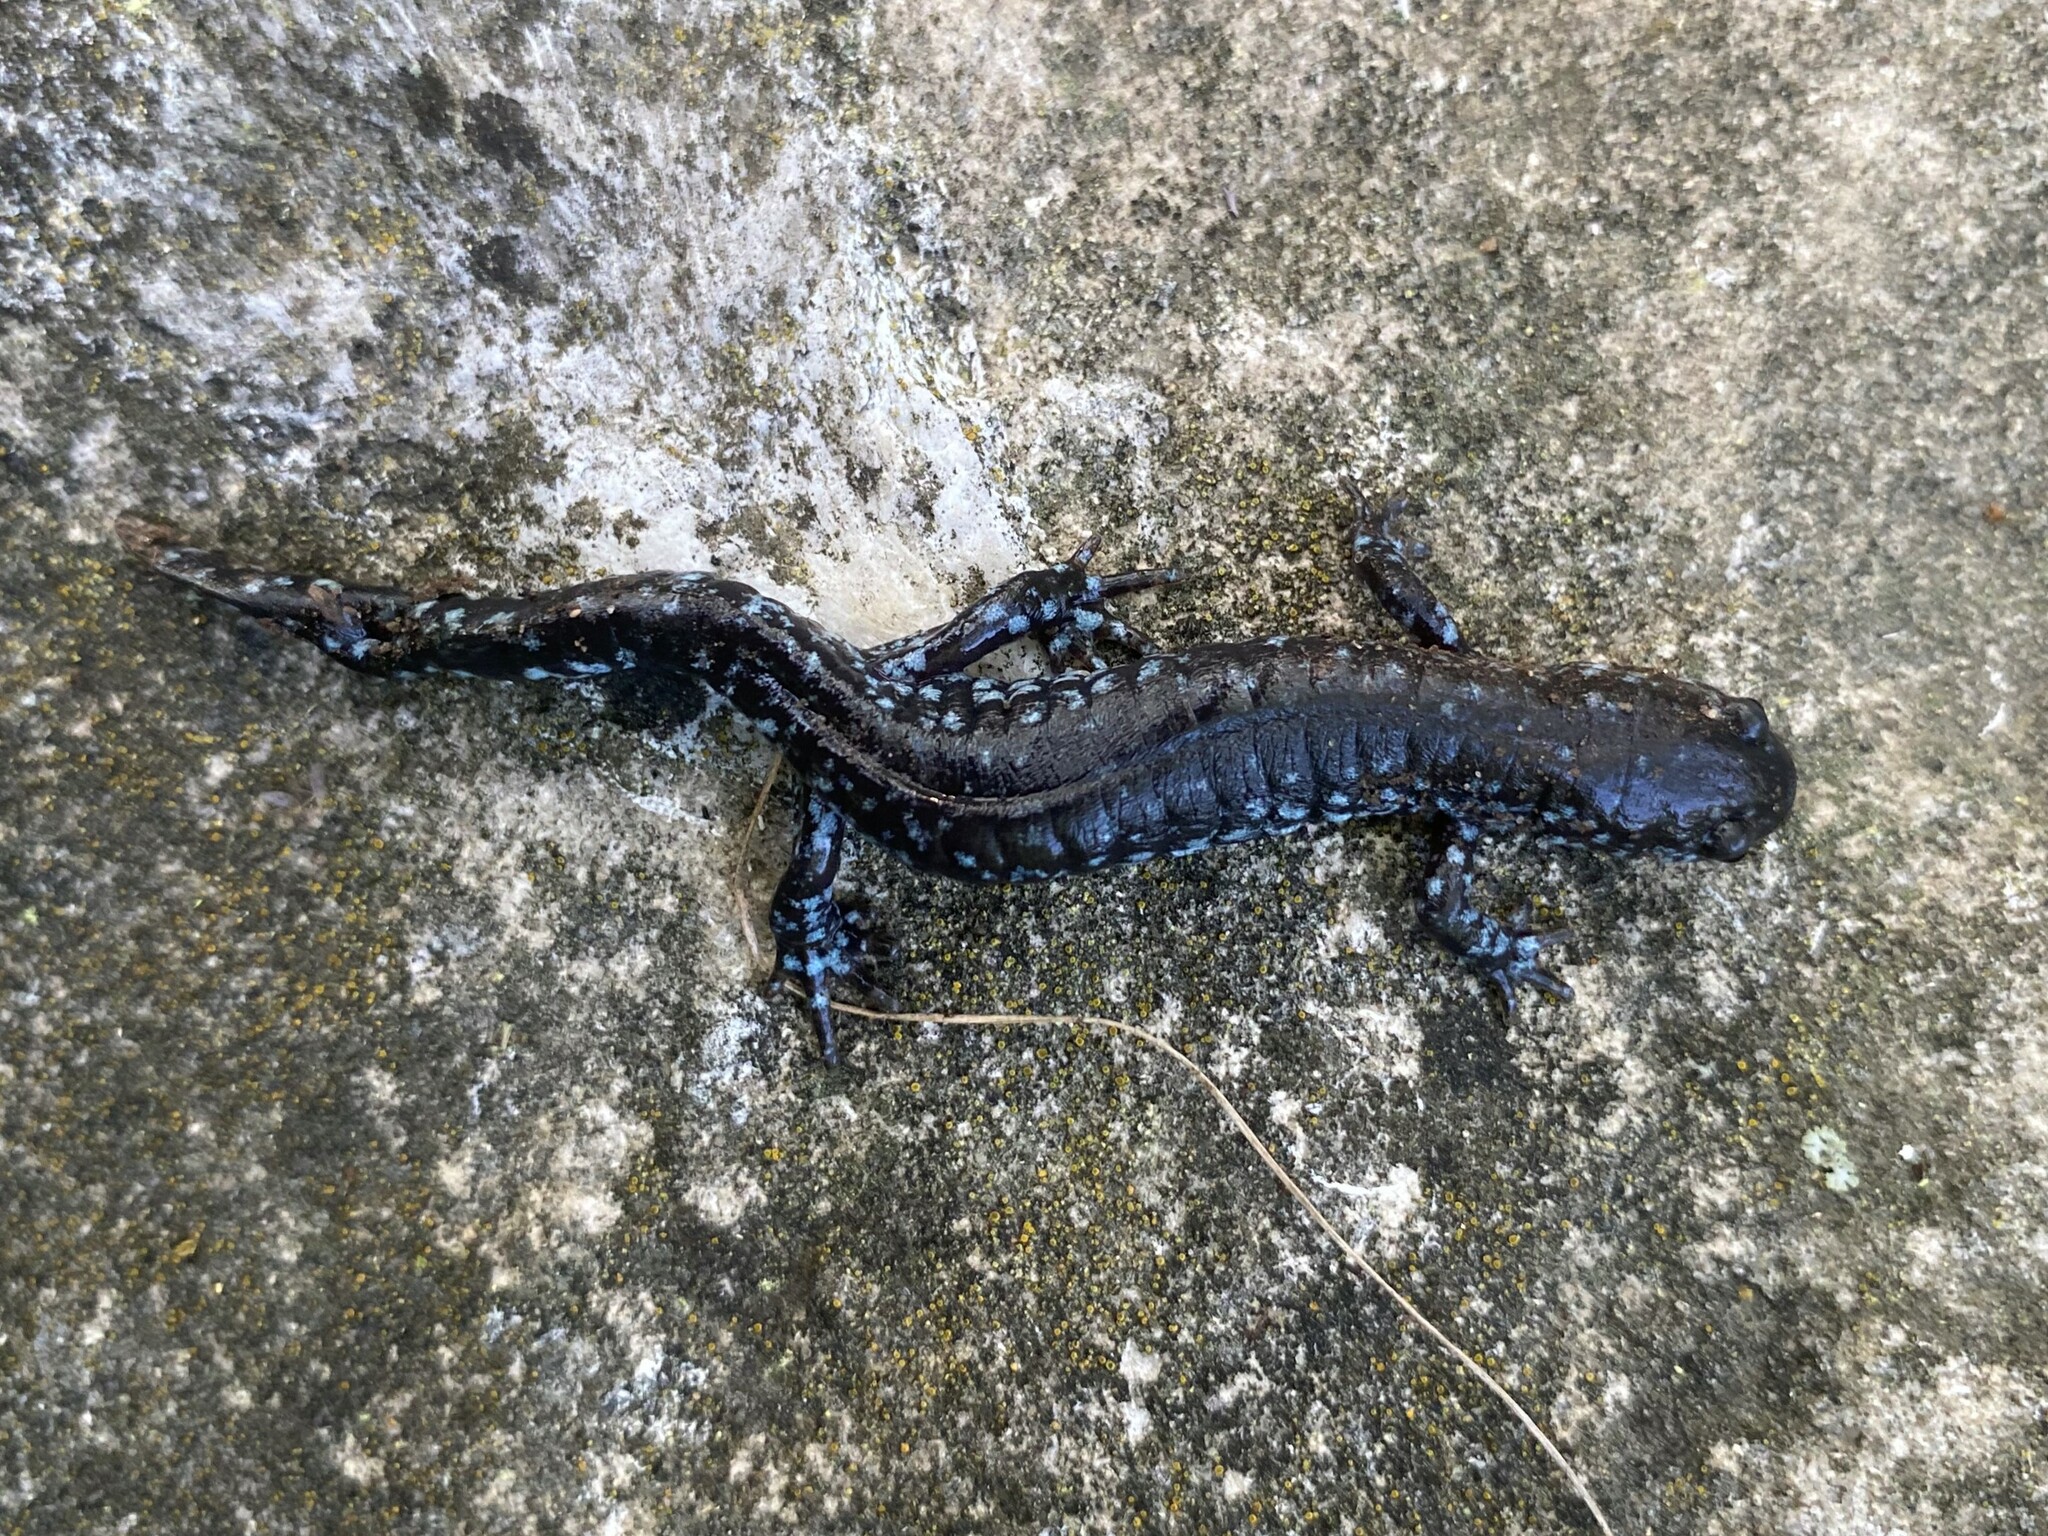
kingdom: Animalia
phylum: Chordata
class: Amphibia
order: Caudata
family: Ambystomatidae
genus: Ambystoma
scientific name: Ambystoma laterale
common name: Blue-spotted salamander
